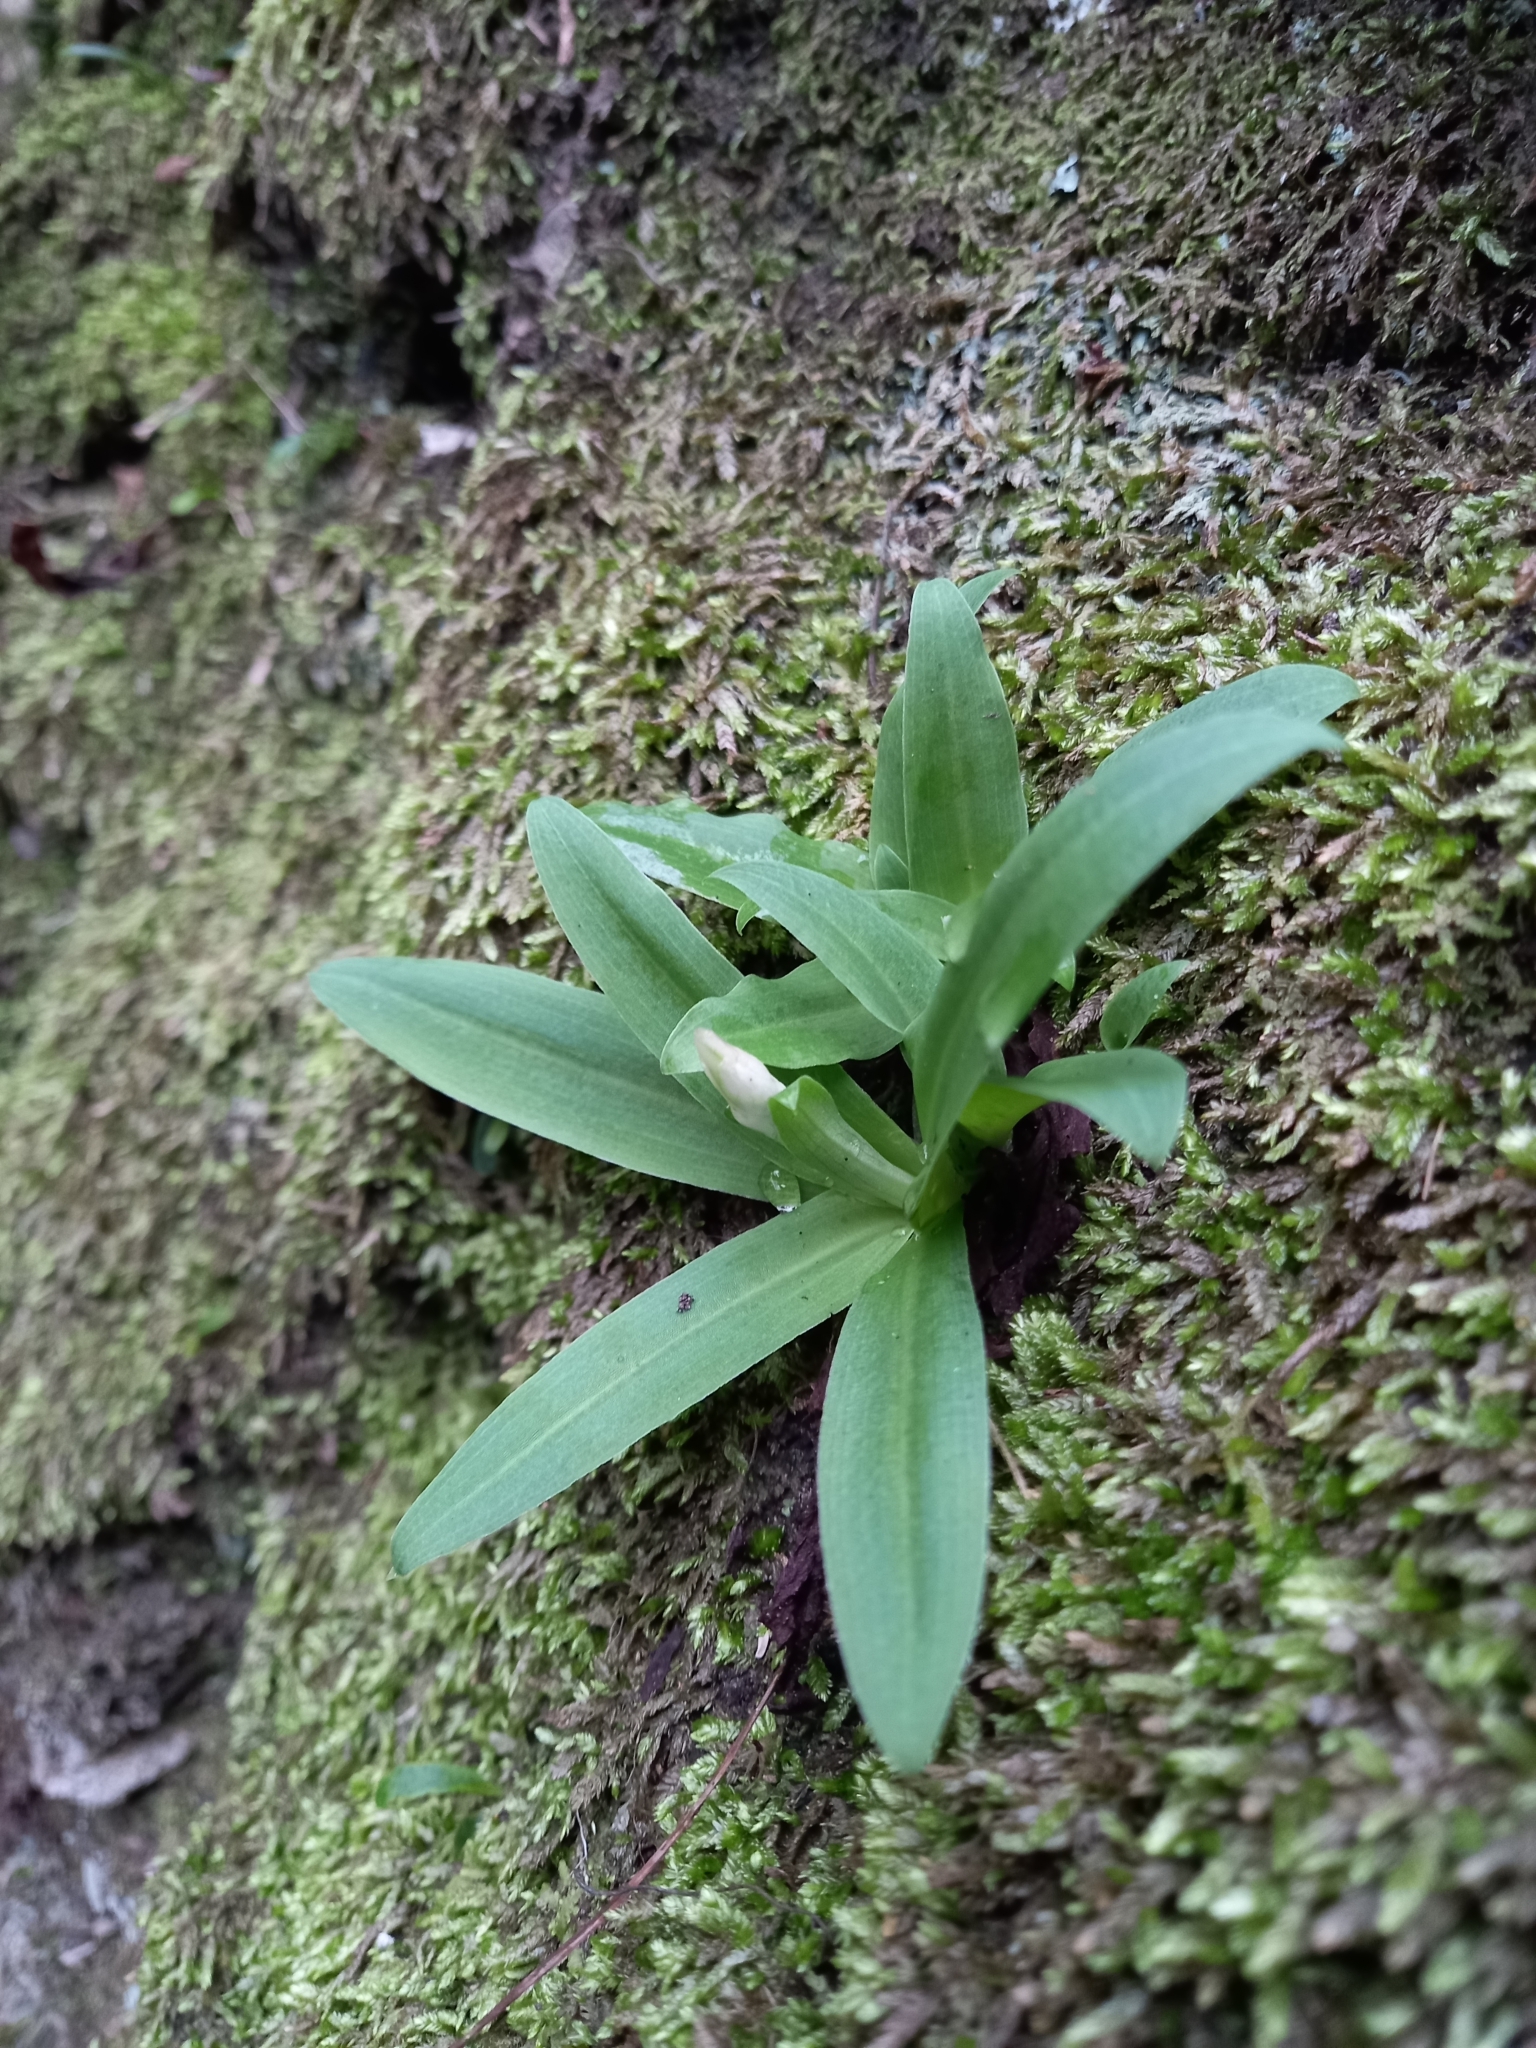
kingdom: Plantae
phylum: Tracheophyta
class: Liliopsida
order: Asparagales
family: Orchidaceae
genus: Disa
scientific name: Disa sagittalis
